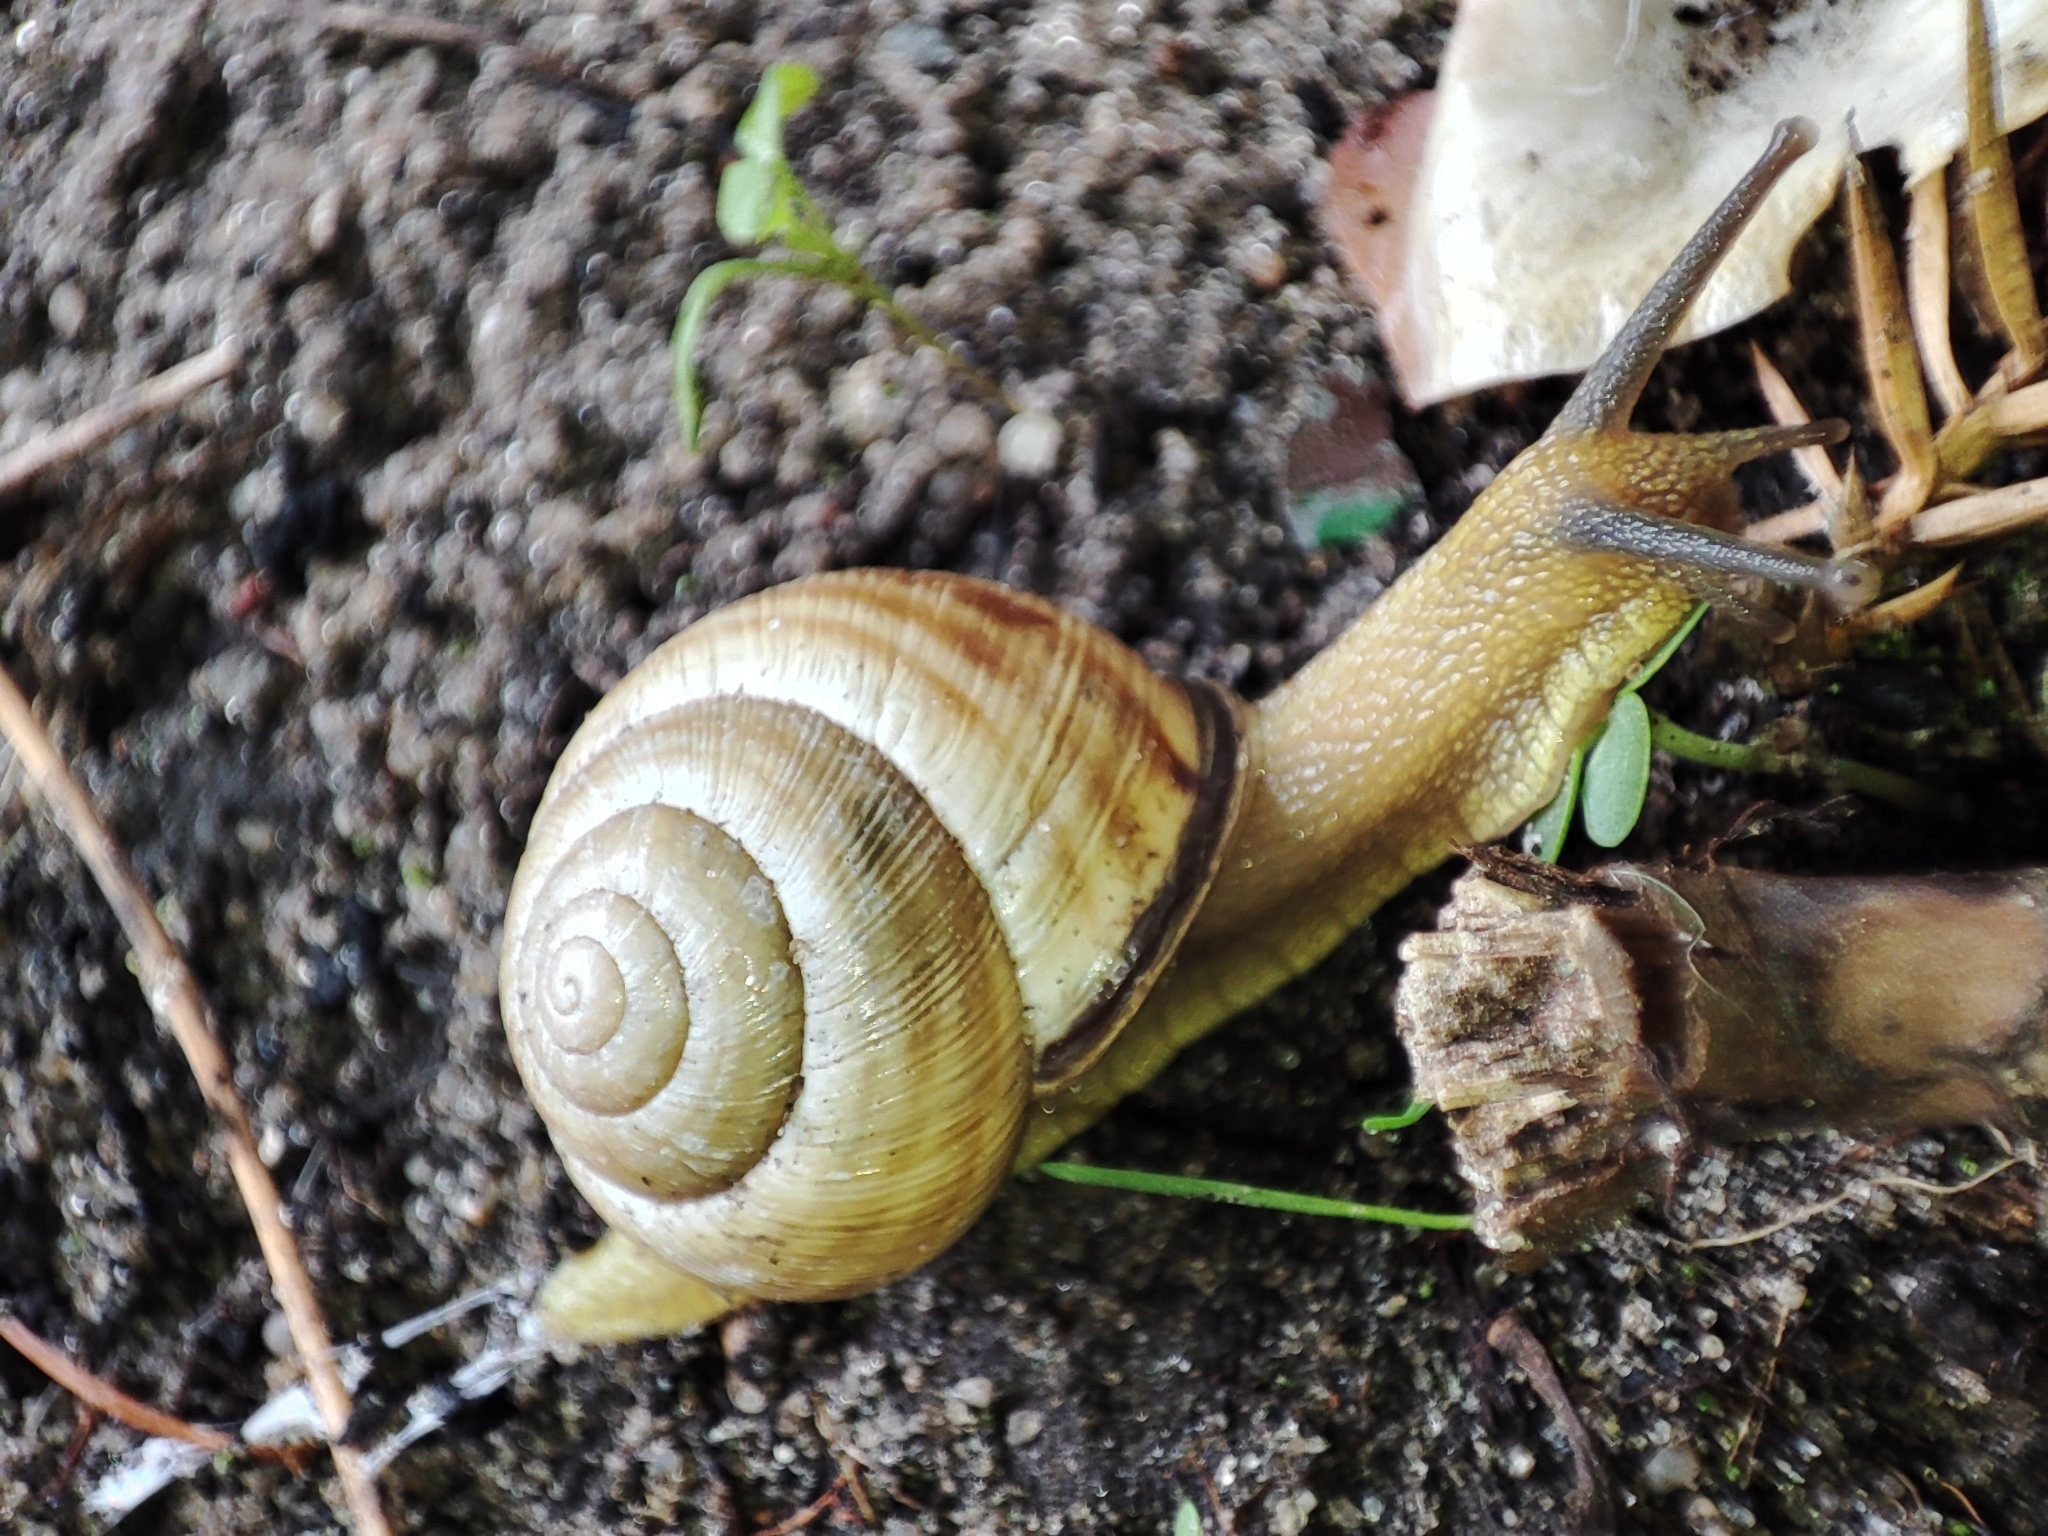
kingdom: Animalia
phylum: Mollusca
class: Gastropoda
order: Stylommatophora
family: Helicidae
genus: Caucasotachea
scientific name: Caucasotachea vindobonensis
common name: European helicid land snail
